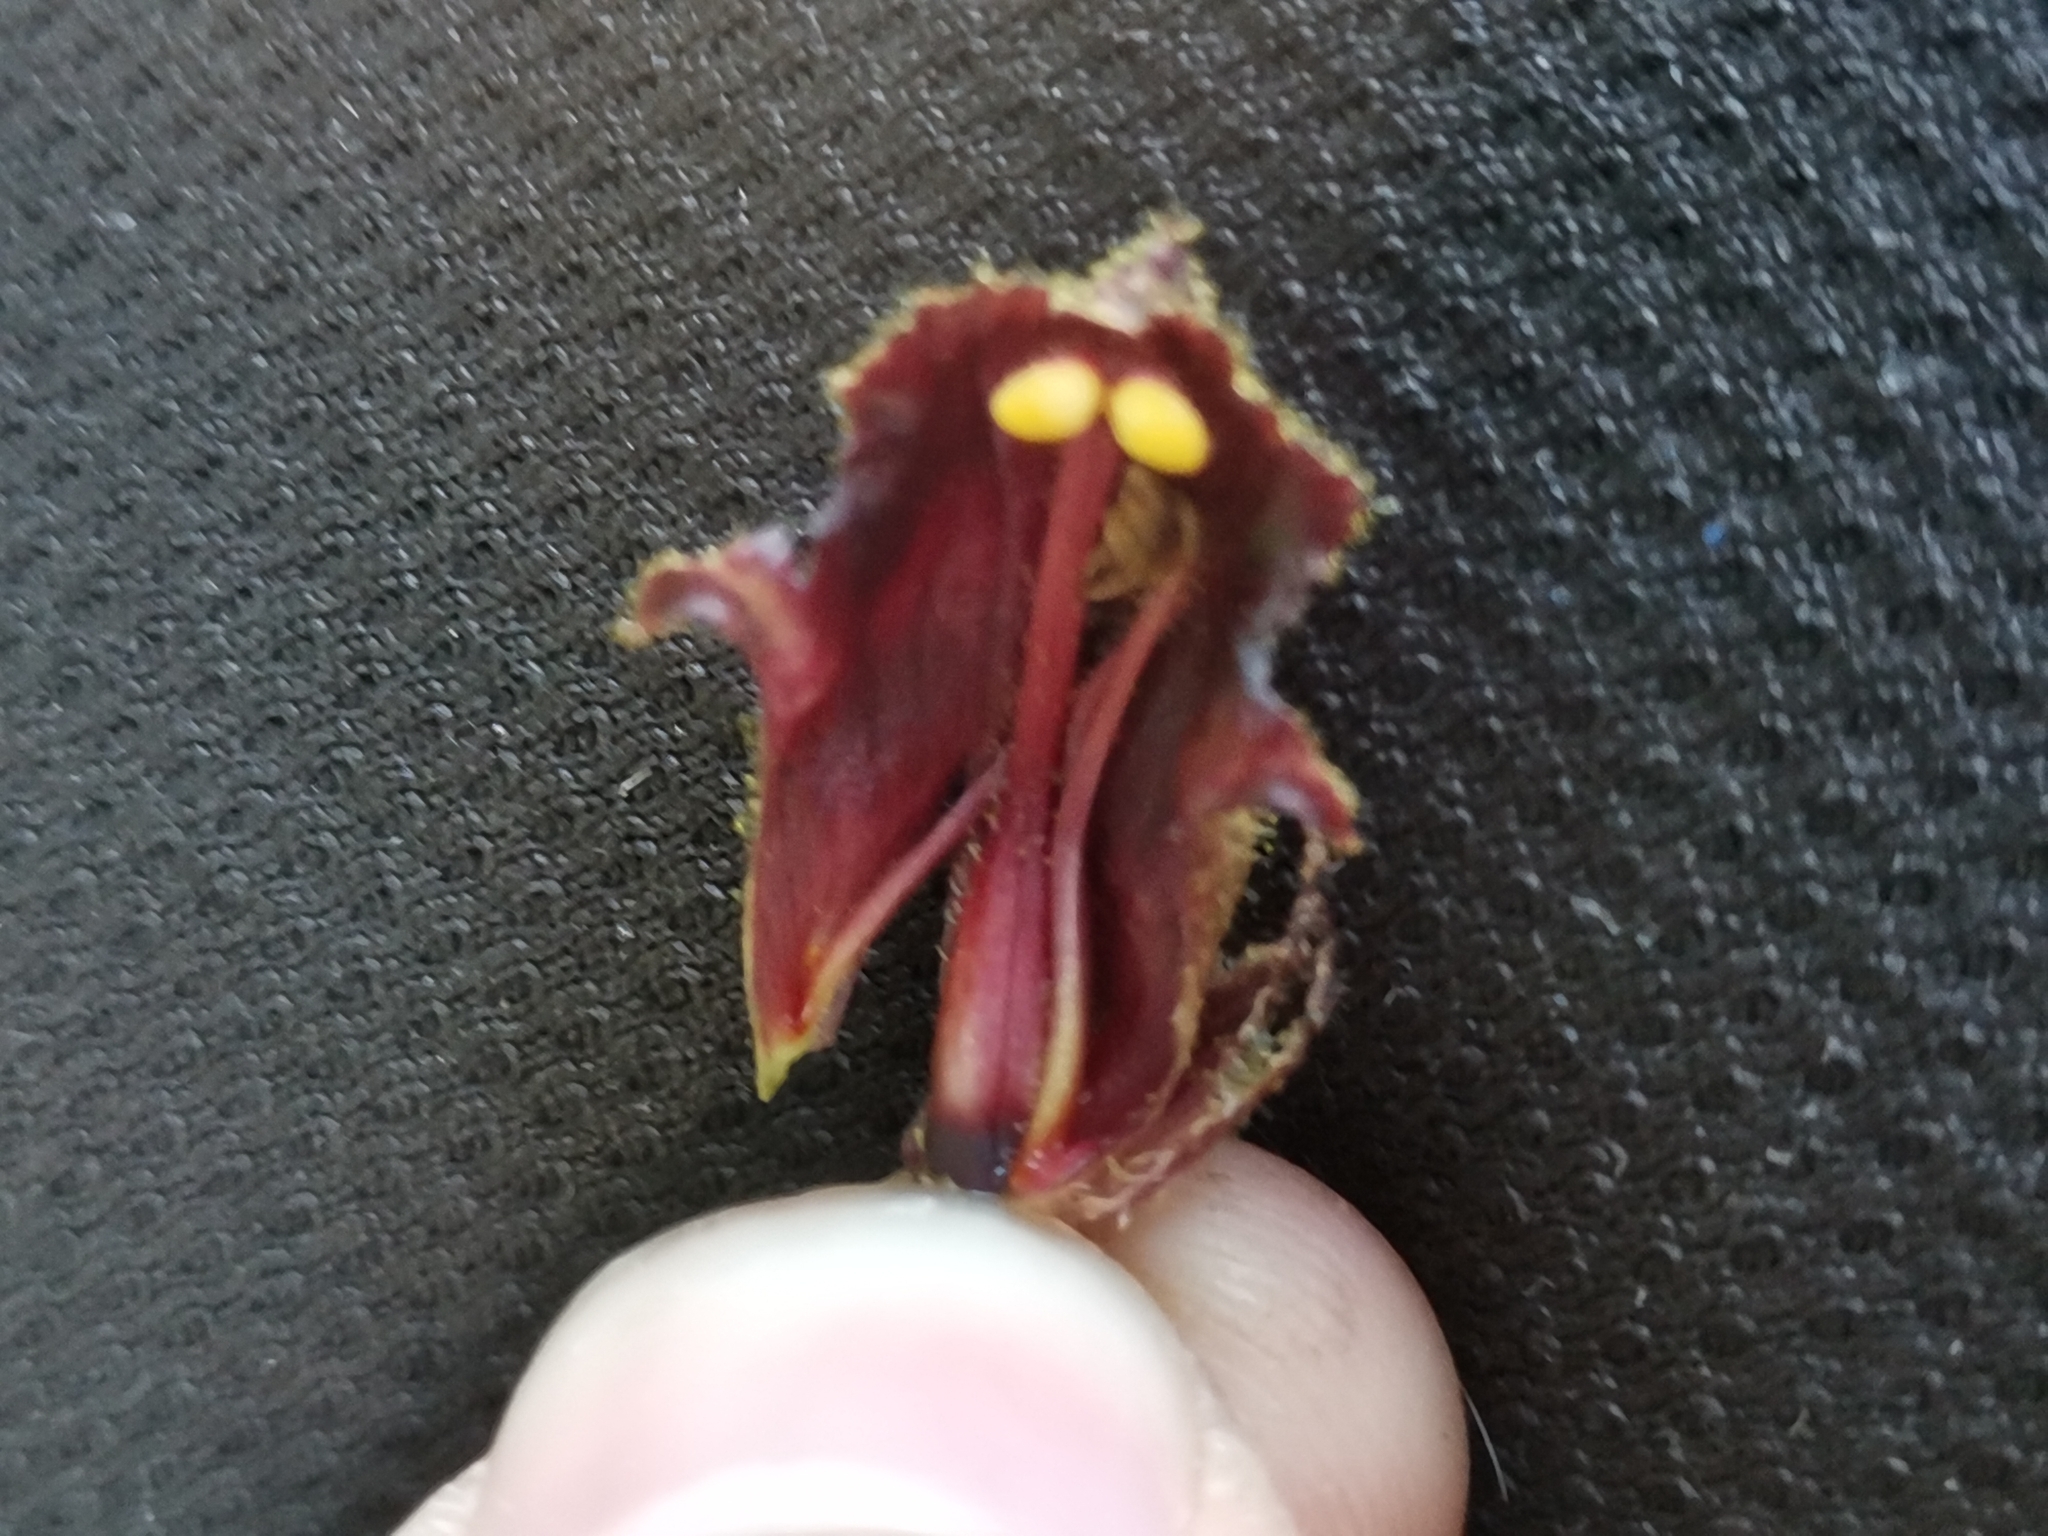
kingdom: Plantae
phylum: Tracheophyta
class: Magnoliopsida
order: Lamiales
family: Orobanchaceae
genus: Orobanche
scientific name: Orobanche gracilis
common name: Slender broomrape
